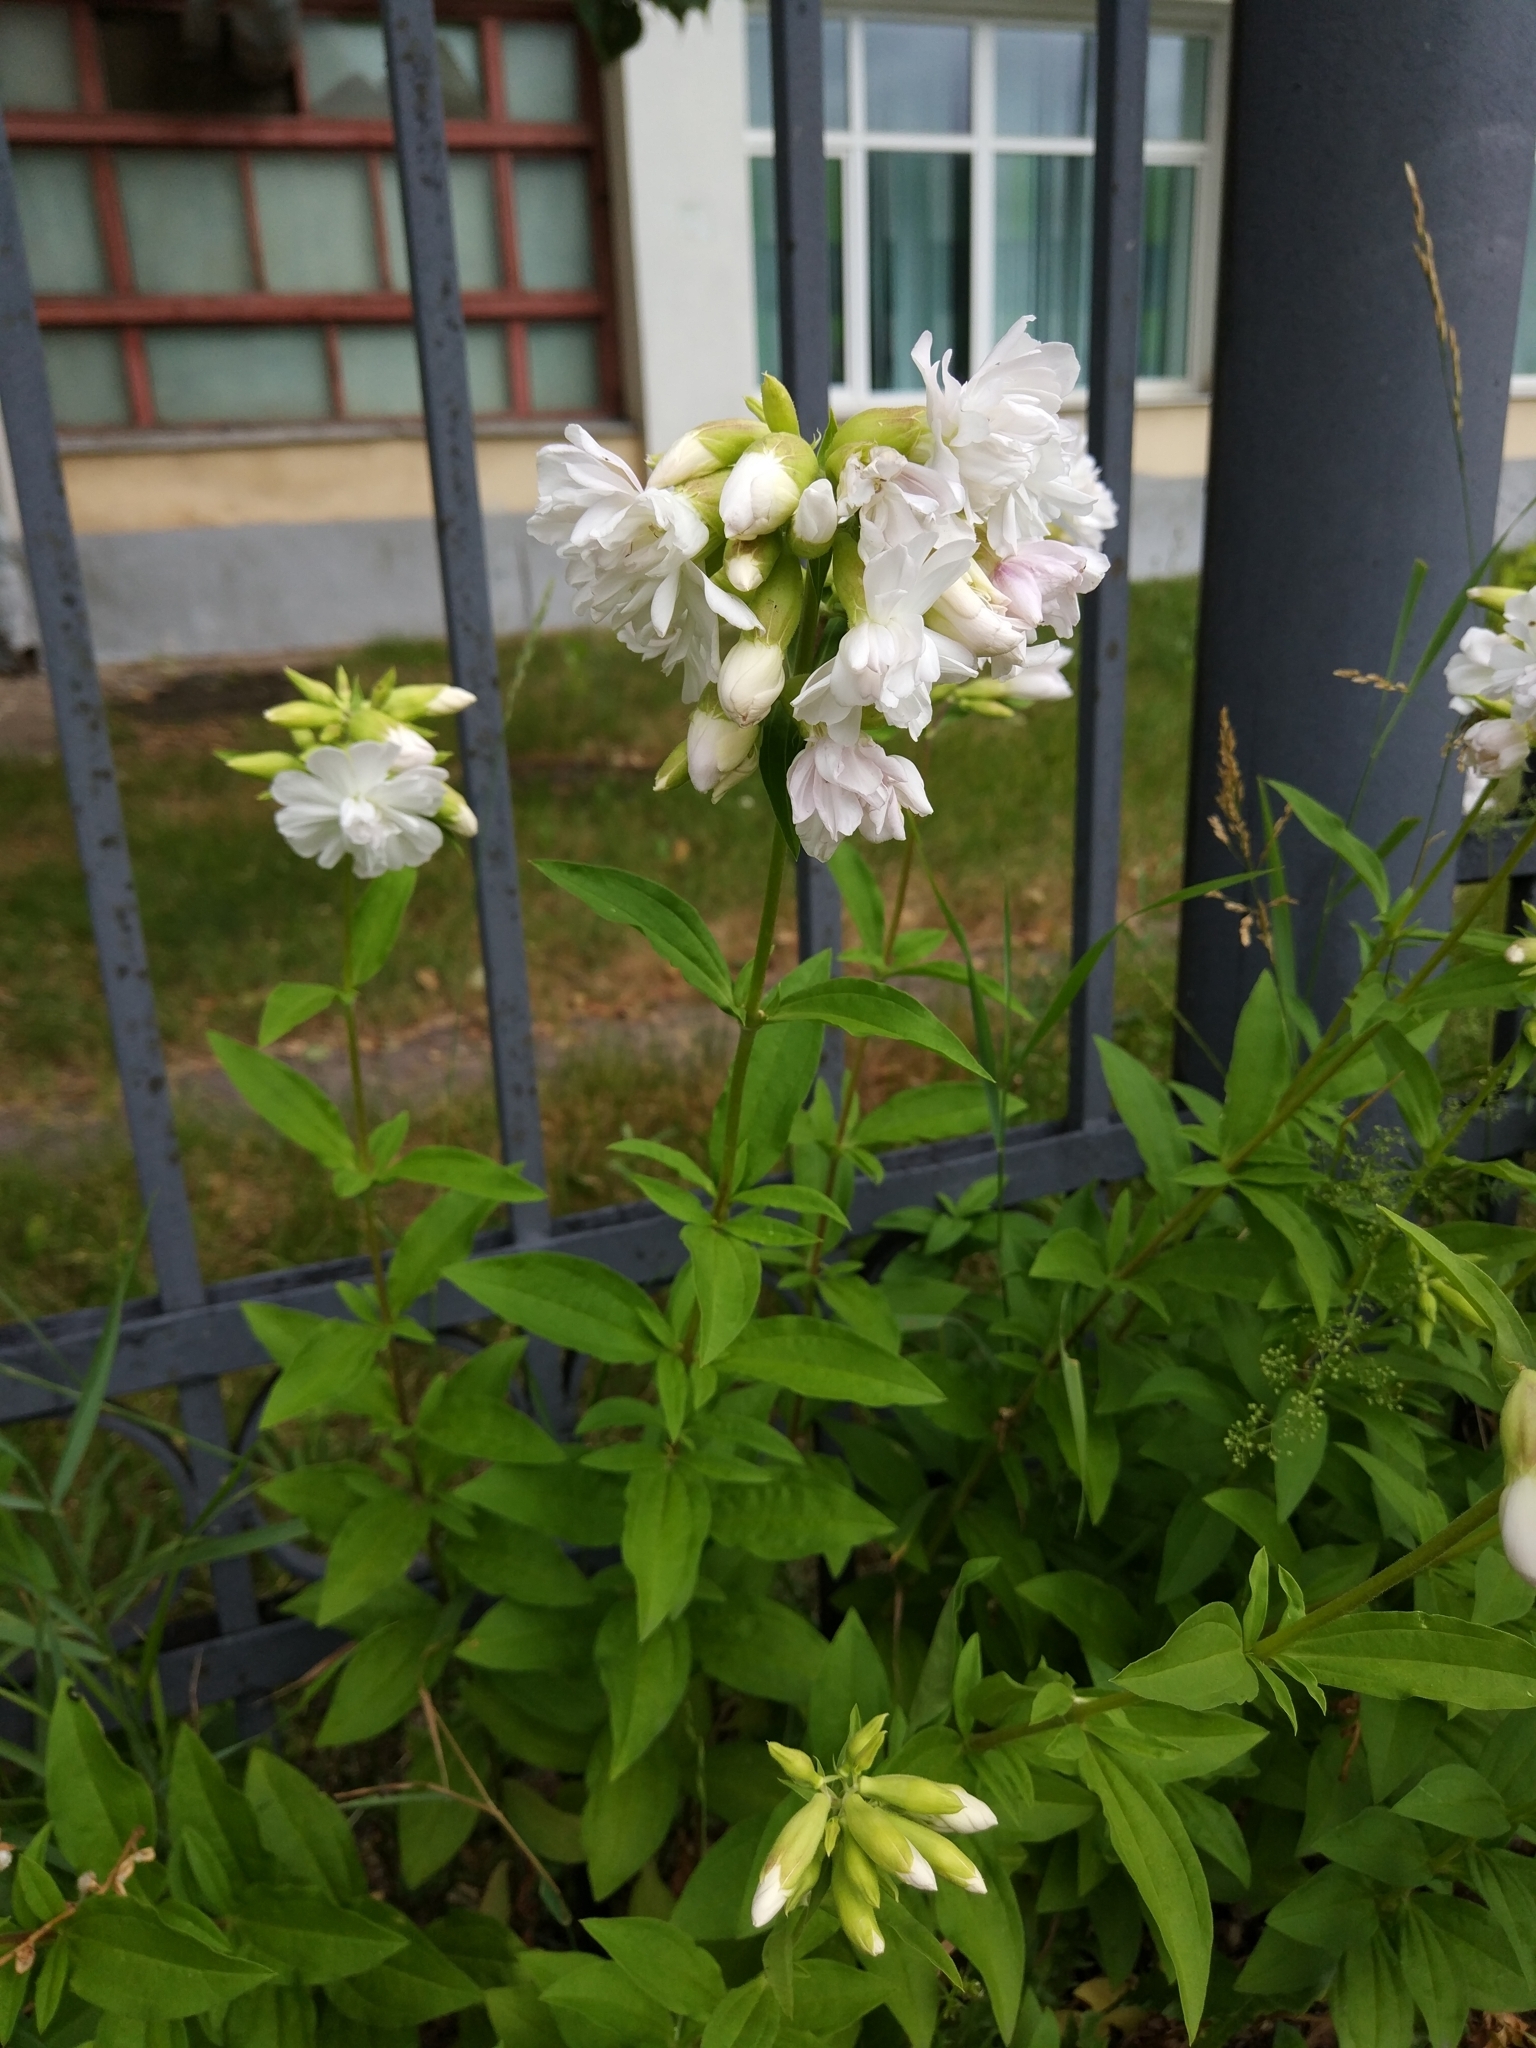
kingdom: Plantae
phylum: Tracheophyta
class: Magnoliopsida
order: Caryophyllales
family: Caryophyllaceae
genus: Saponaria
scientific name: Saponaria officinalis
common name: Soapwort
